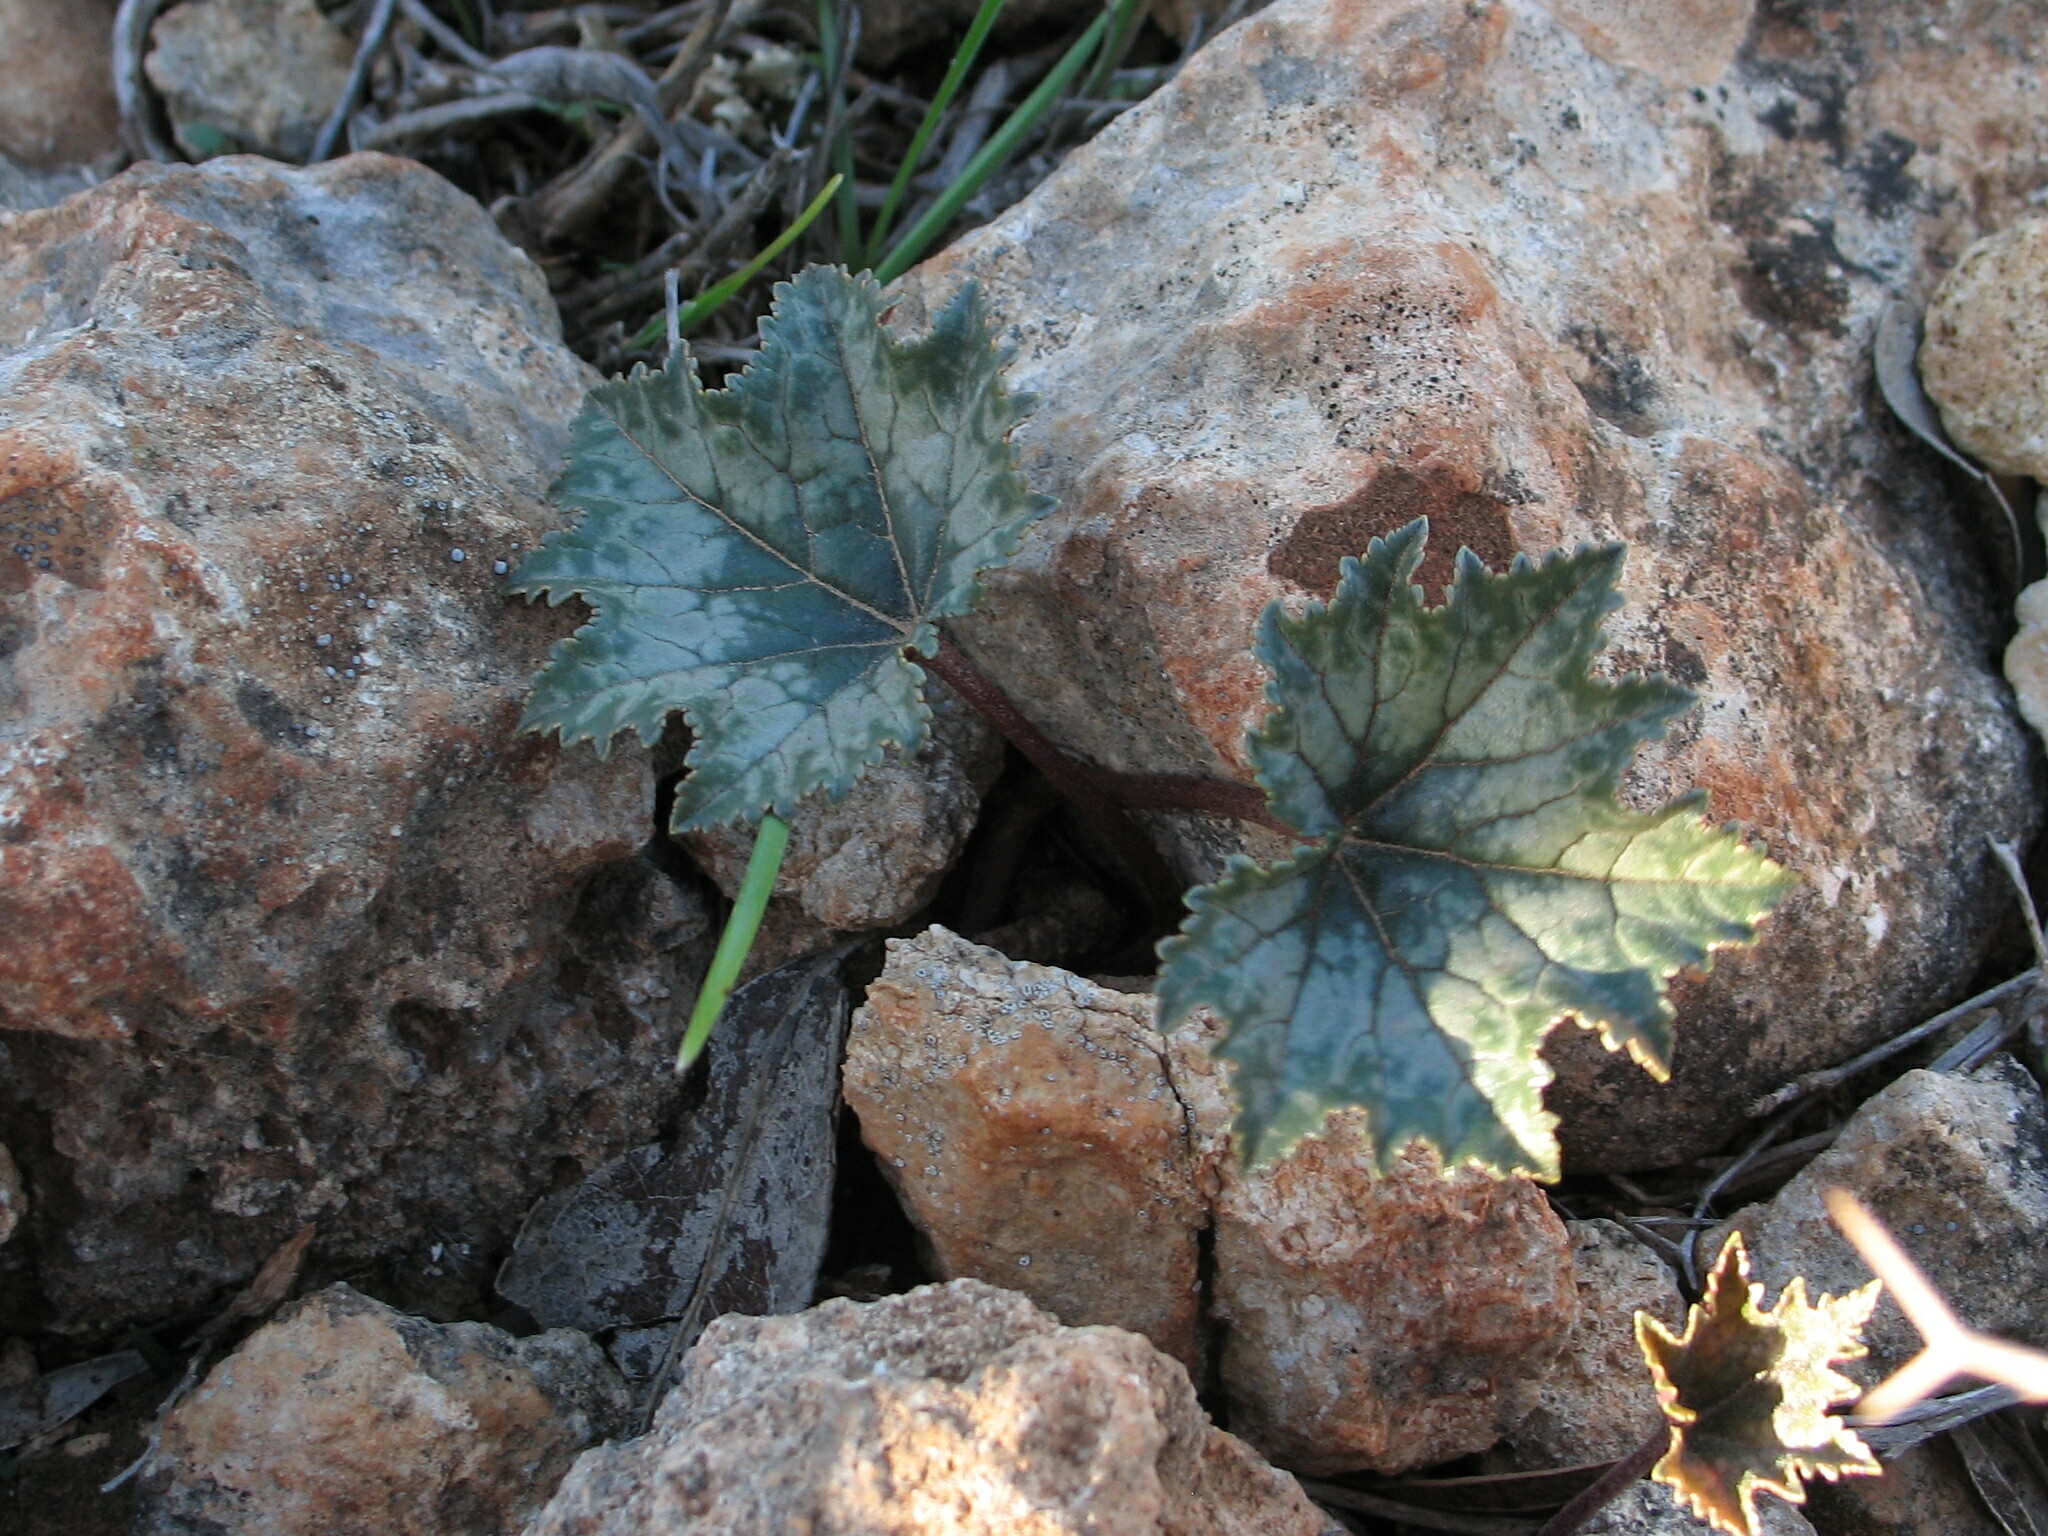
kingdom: Plantae
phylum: Tracheophyta
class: Magnoliopsida
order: Ericales
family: Primulaceae
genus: Cyclamen
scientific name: Cyclamen rohlfsianum
